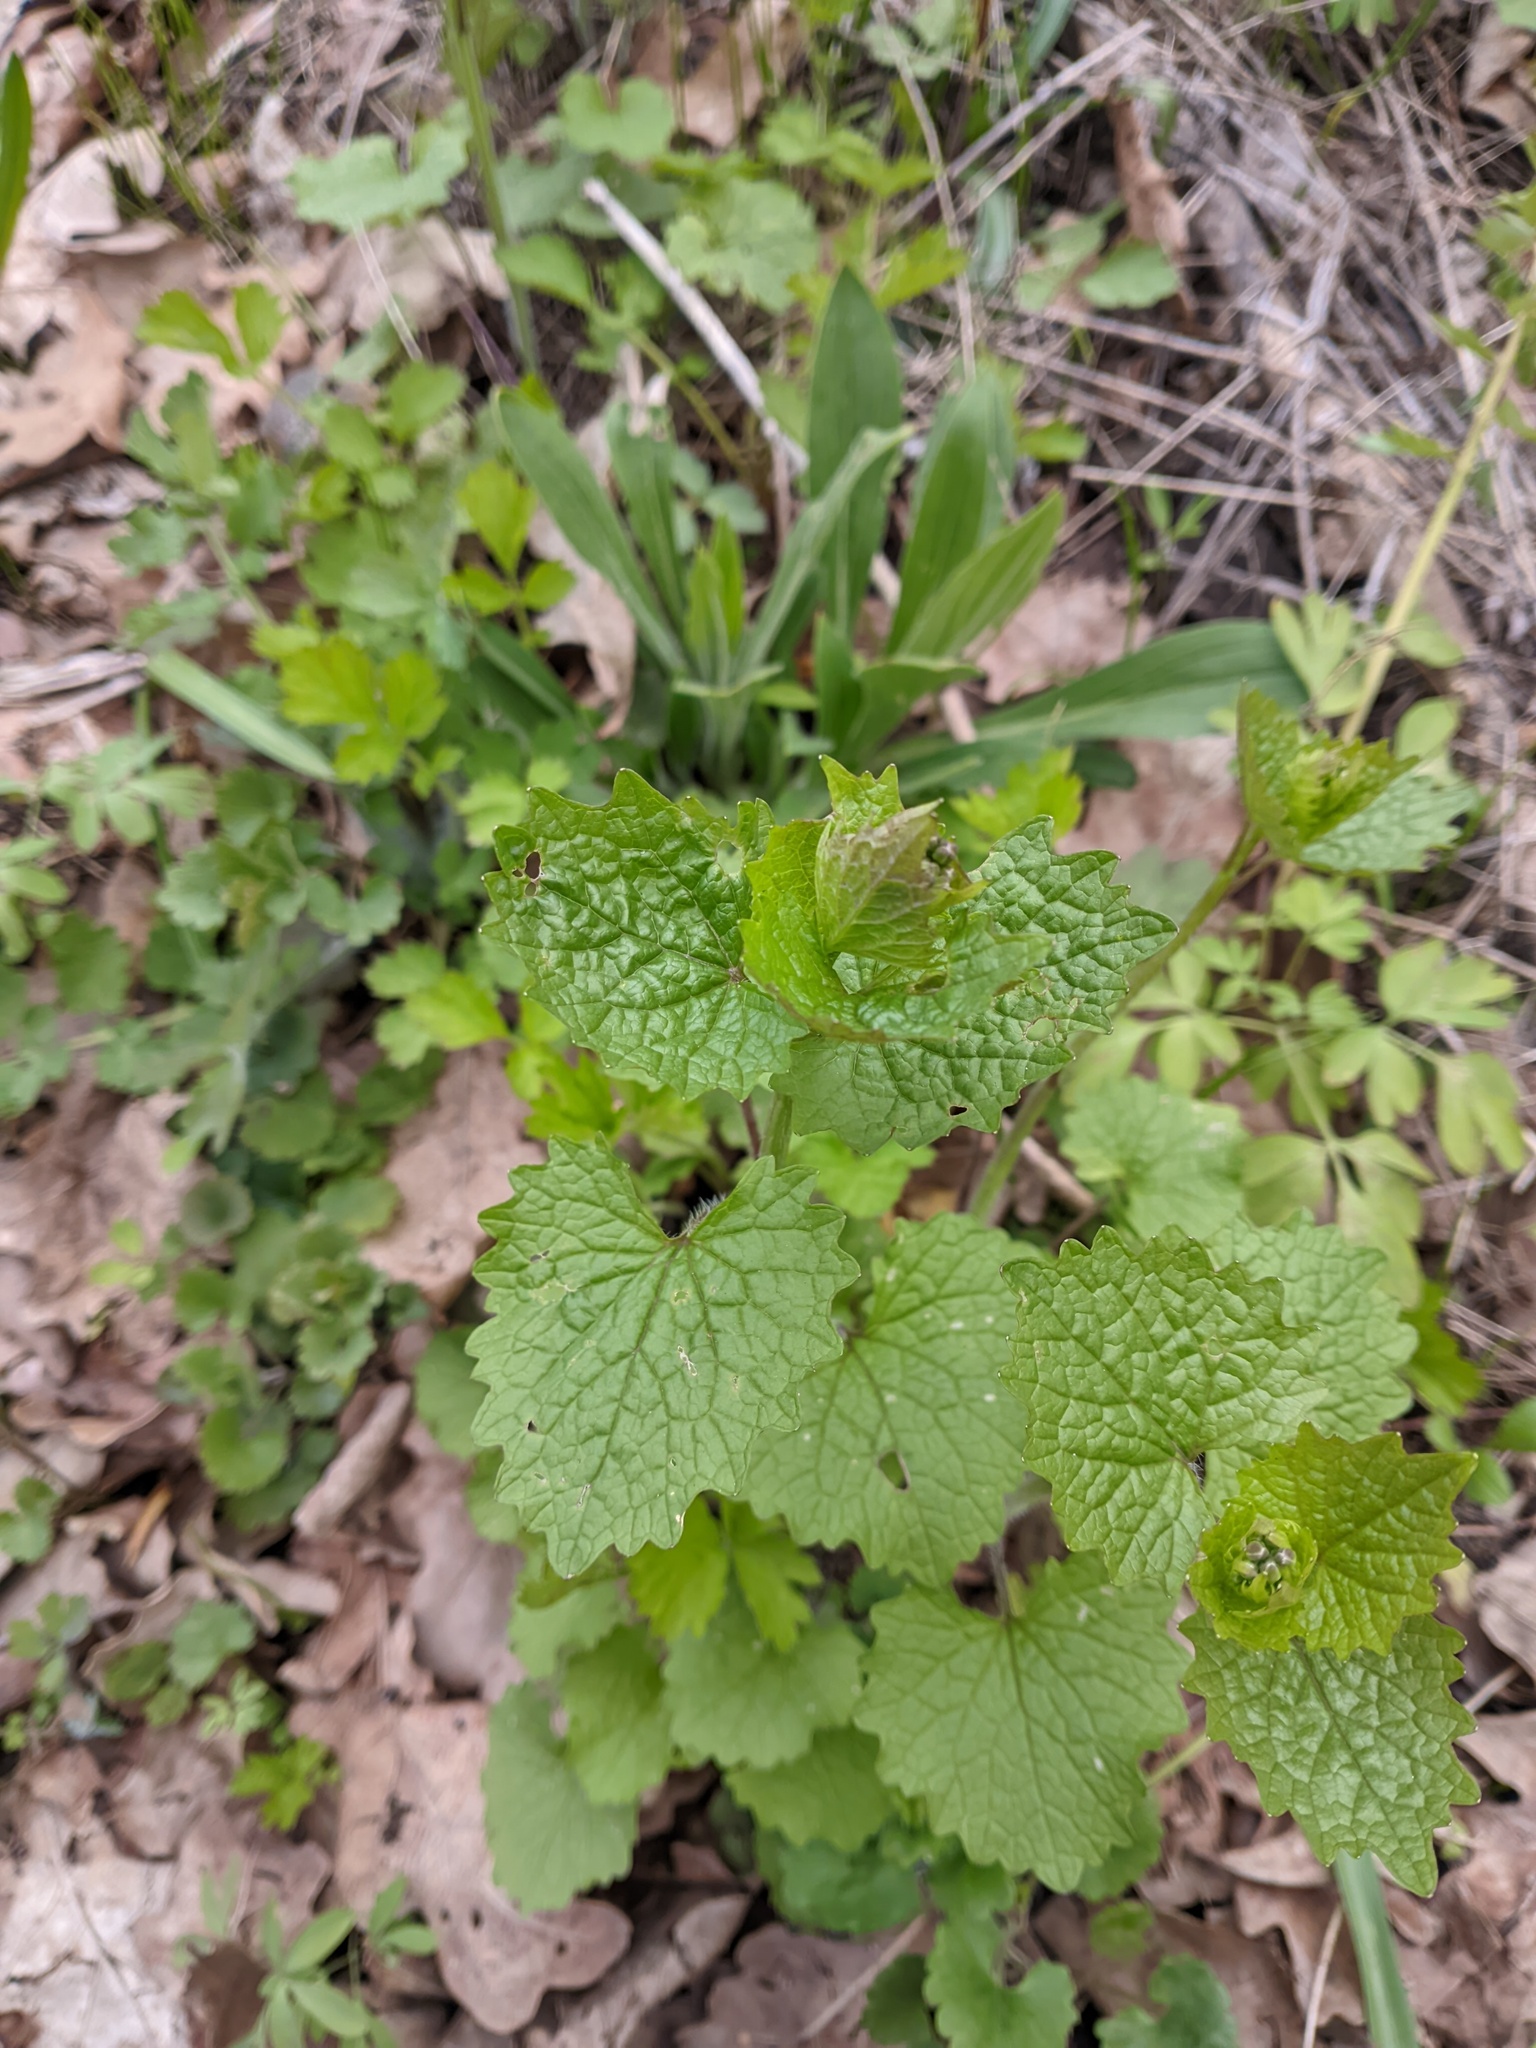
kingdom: Plantae
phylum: Tracheophyta
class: Magnoliopsida
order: Brassicales
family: Brassicaceae
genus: Alliaria
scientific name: Alliaria petiolata
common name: Garlic mustard
